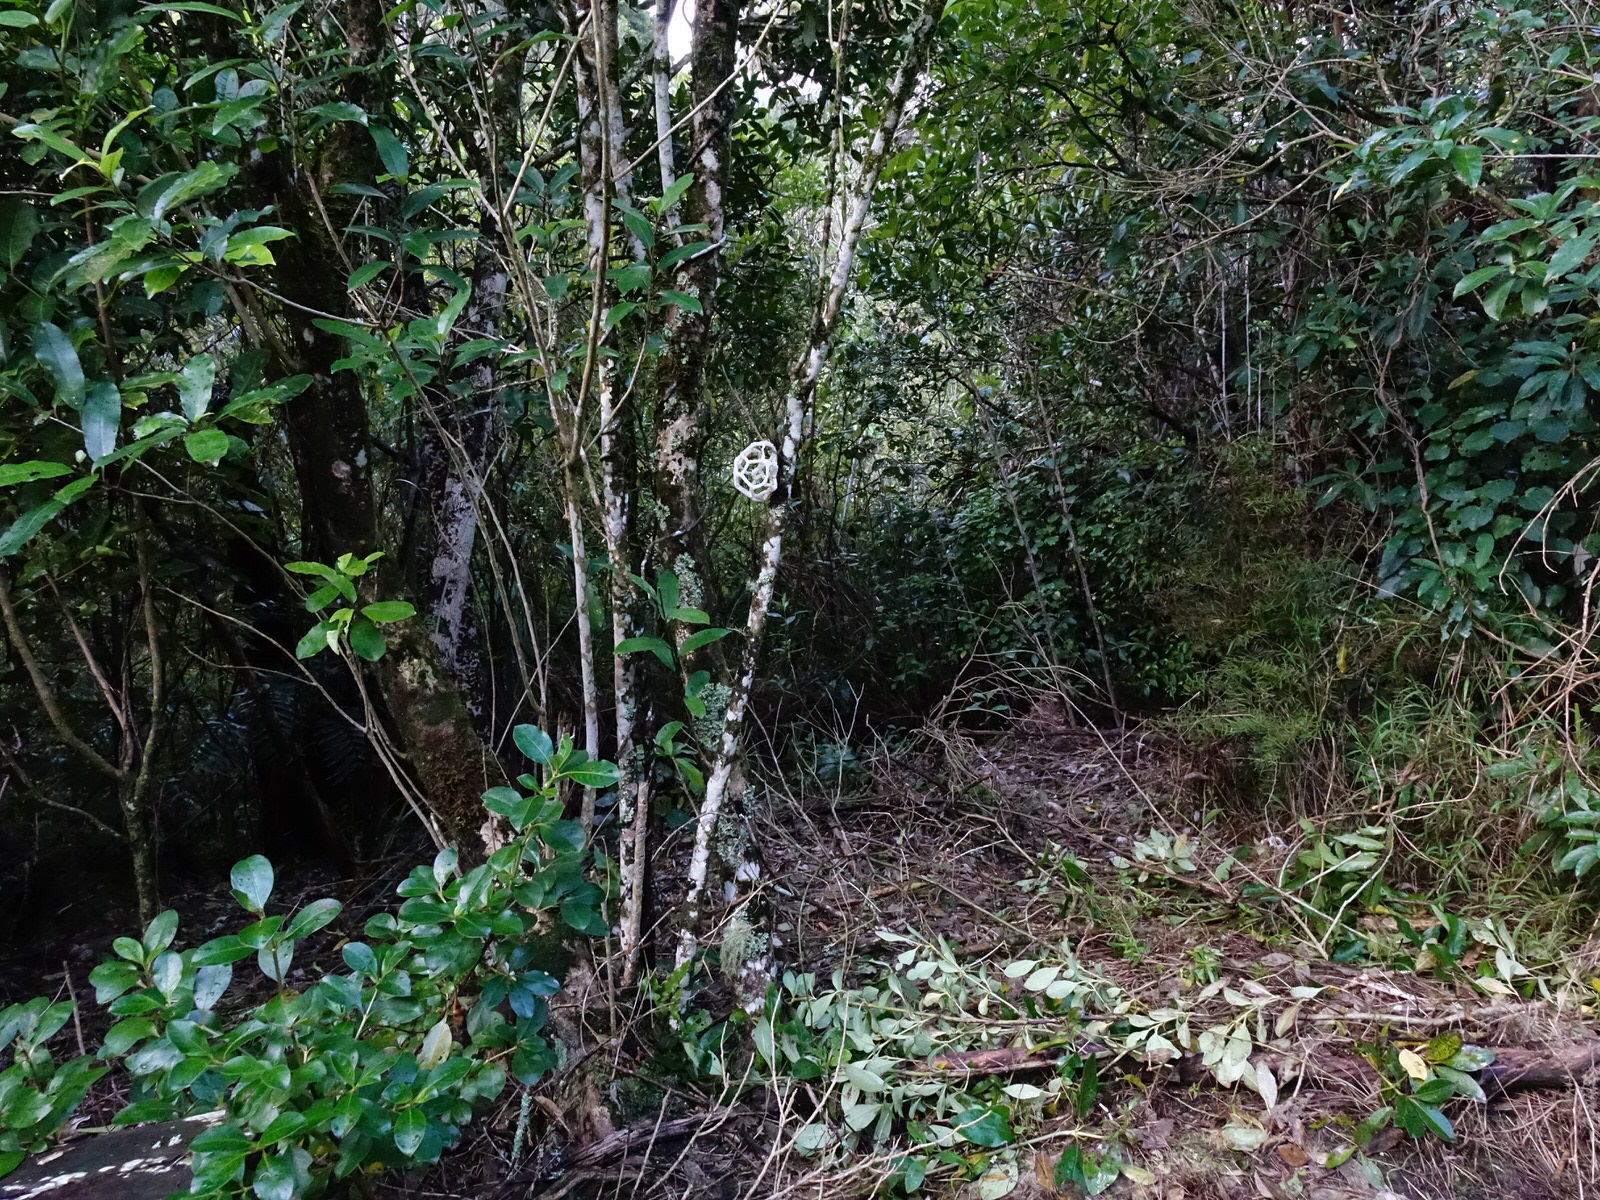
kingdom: Fungi
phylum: Basidiomycota
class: Agaricomycetes
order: Phallales
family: Phallaceae
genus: Ileodictyon
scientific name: Ileodictyon cibarium
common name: Basket fungus
